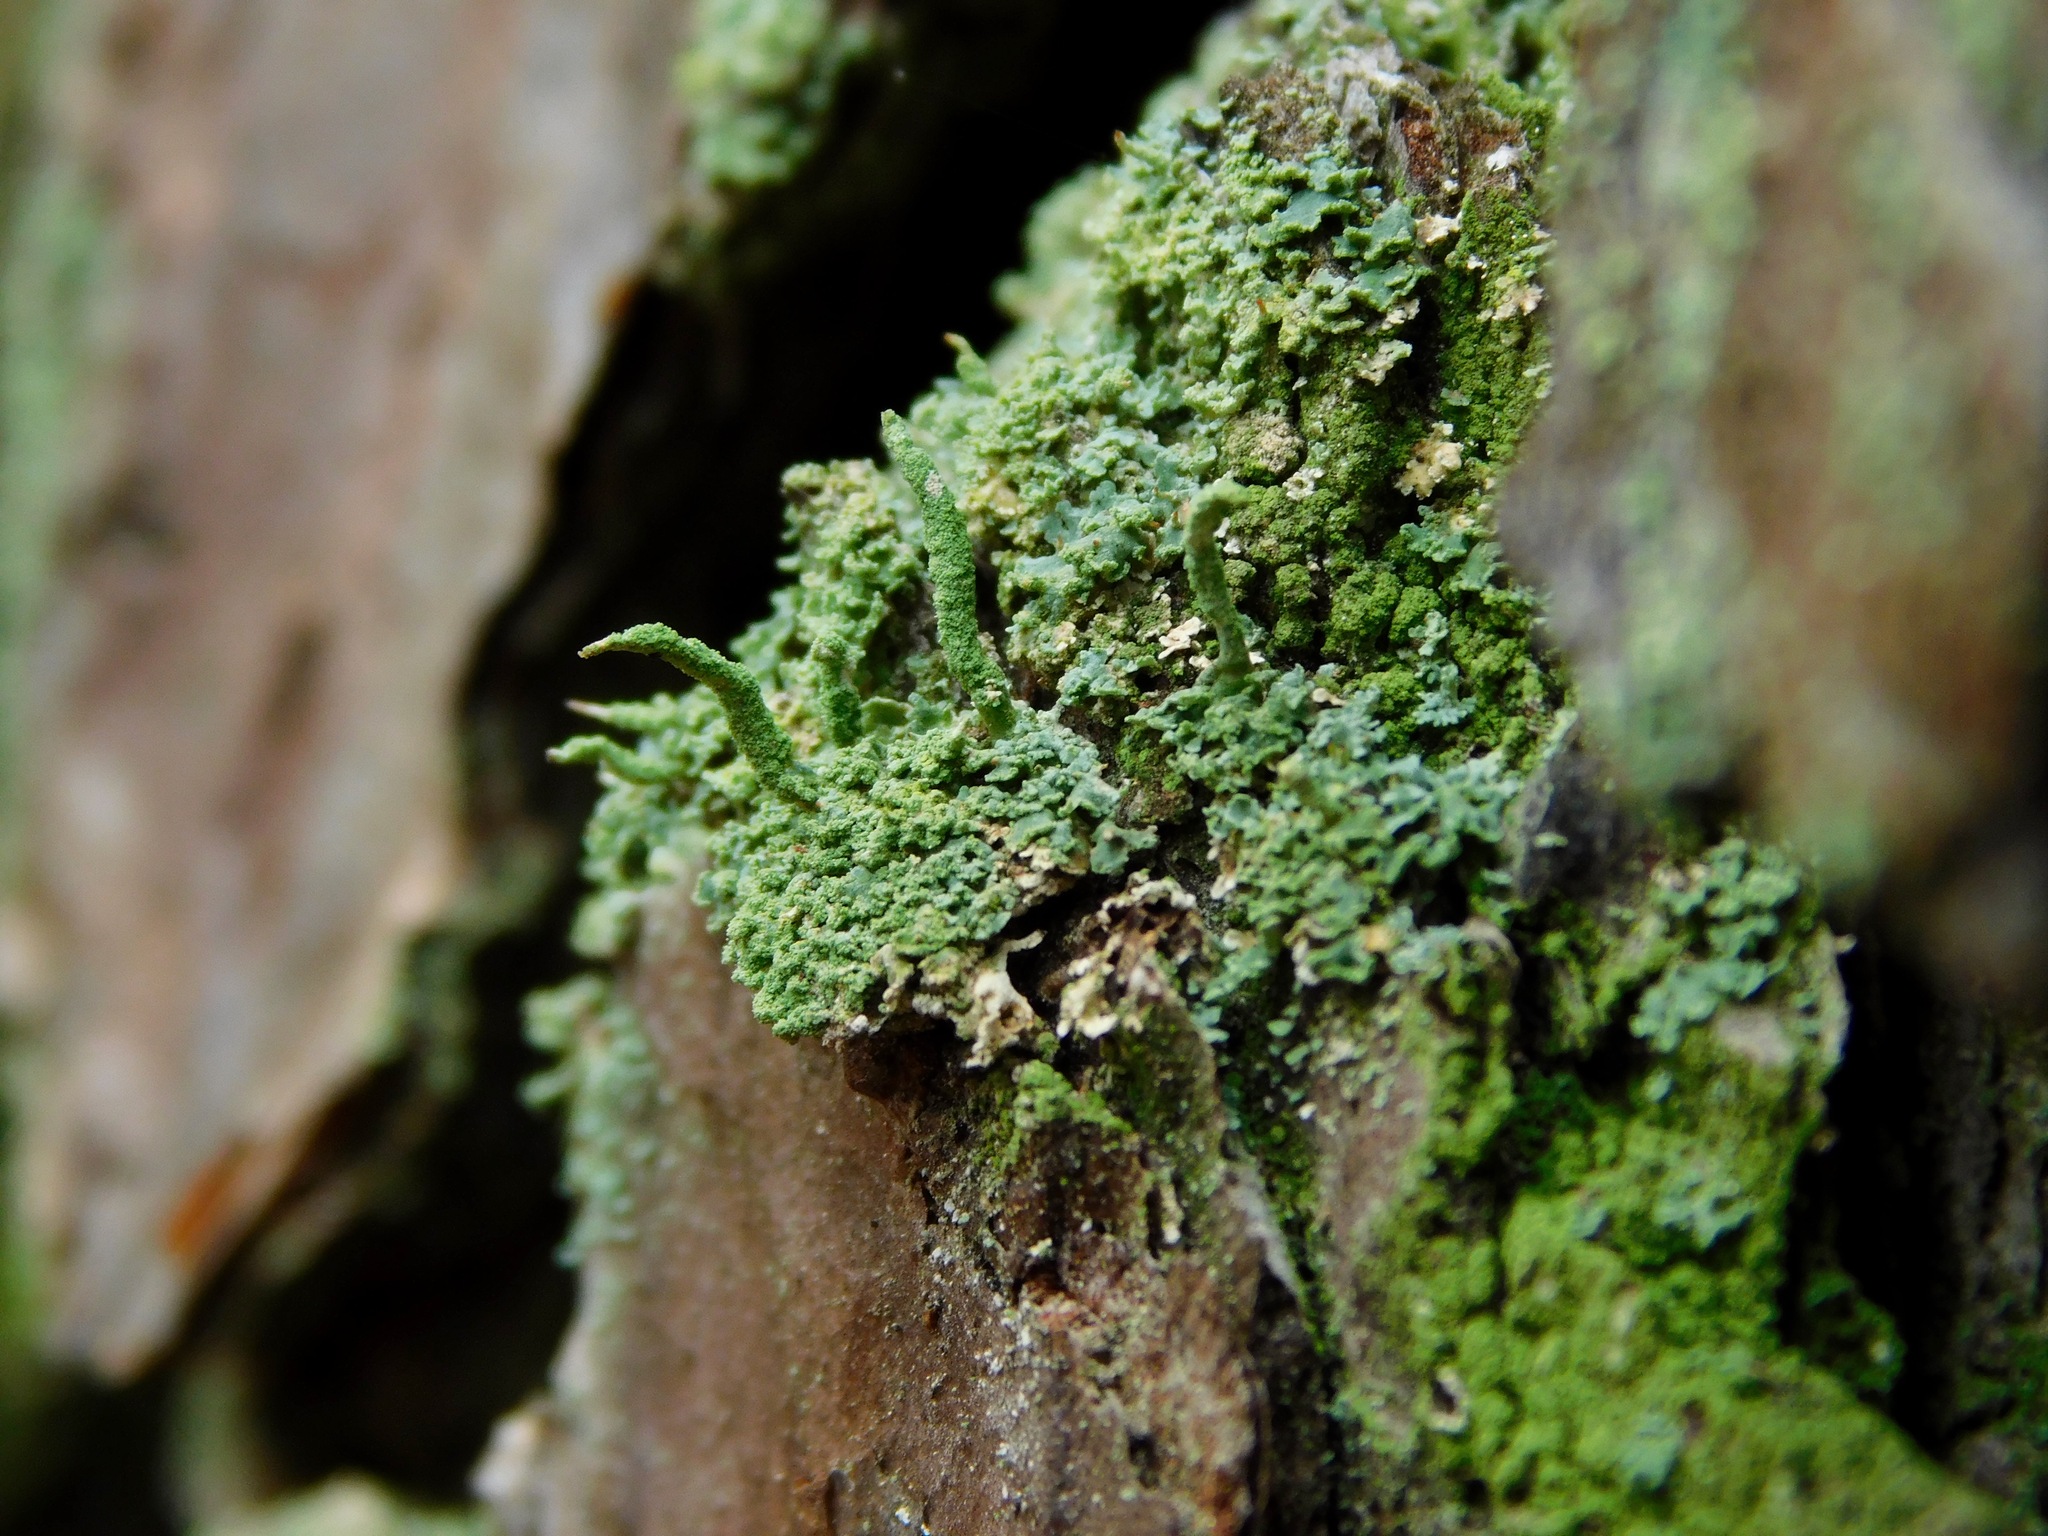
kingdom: Fungi
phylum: Ascomycota
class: Lecanoromycetes
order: Lecanorales
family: Cladoniaceae
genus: Cladonia
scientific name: Cladonia coniocraea
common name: Common powderhorn
